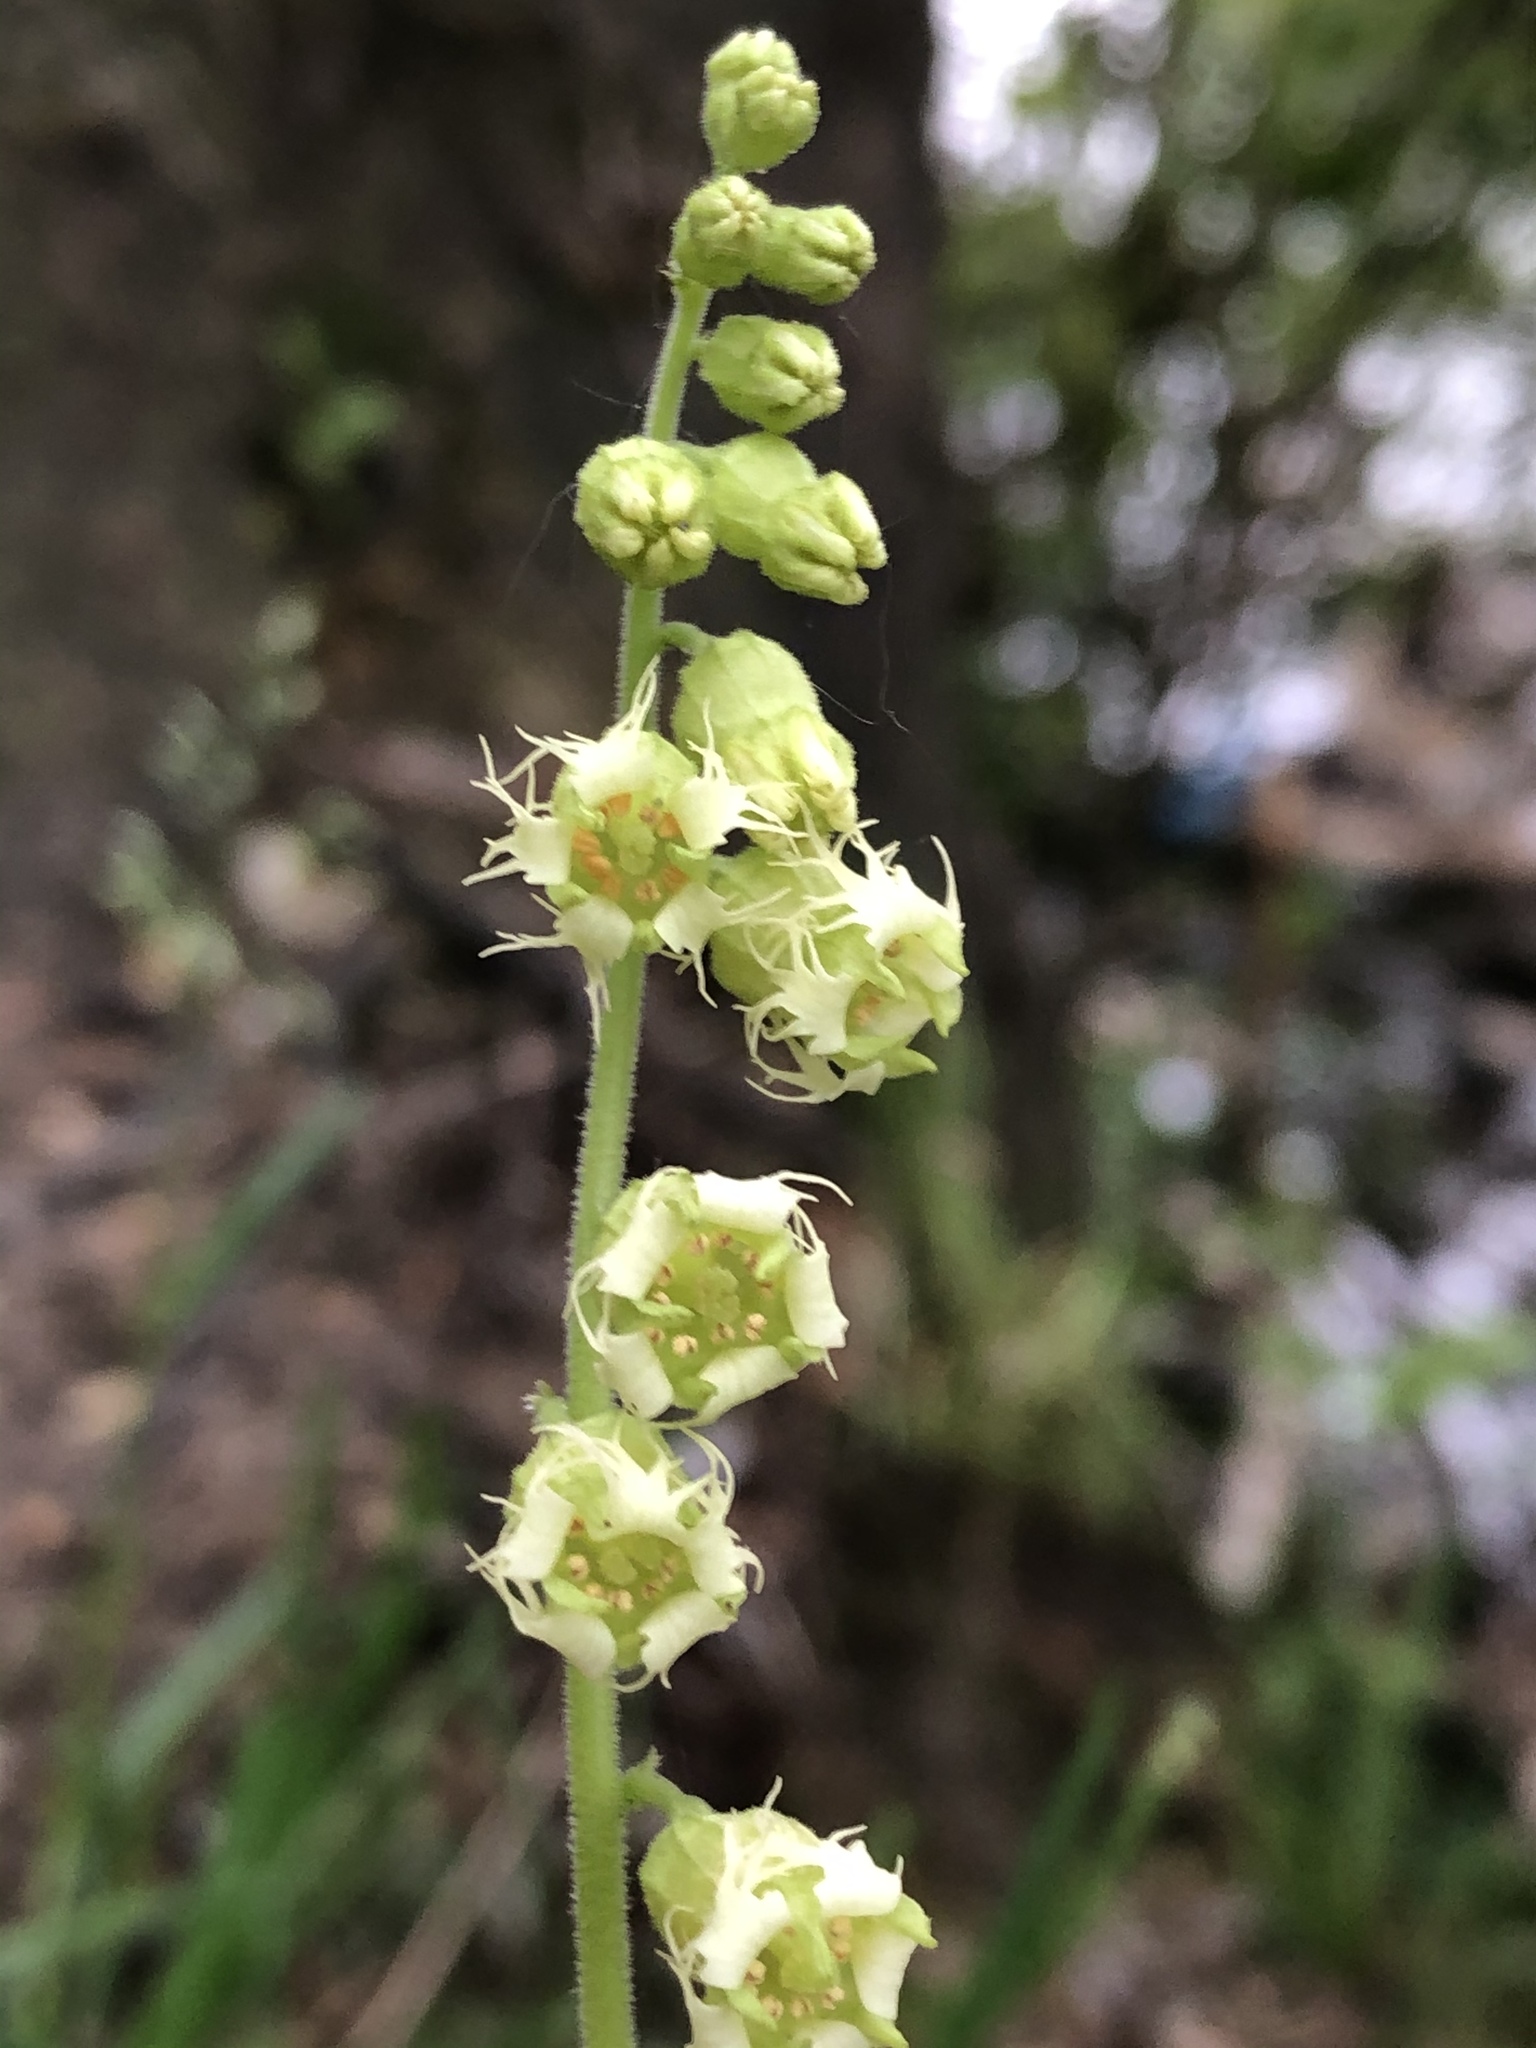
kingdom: Plantae
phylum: Tracheophyta
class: Magnoliopsida
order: Saxifragales
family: Saxifragaceae
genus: Tellima
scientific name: Tellima grandiflora
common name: Fringecups
